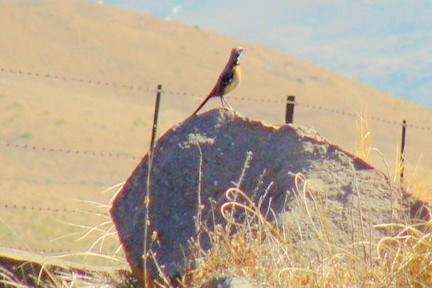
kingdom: Animalia
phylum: Chordata
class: Aves
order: Passeriformes
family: Chaetopidae
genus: Chaetops
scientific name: Chaetops aurantius
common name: Drakensberg rockjumper
